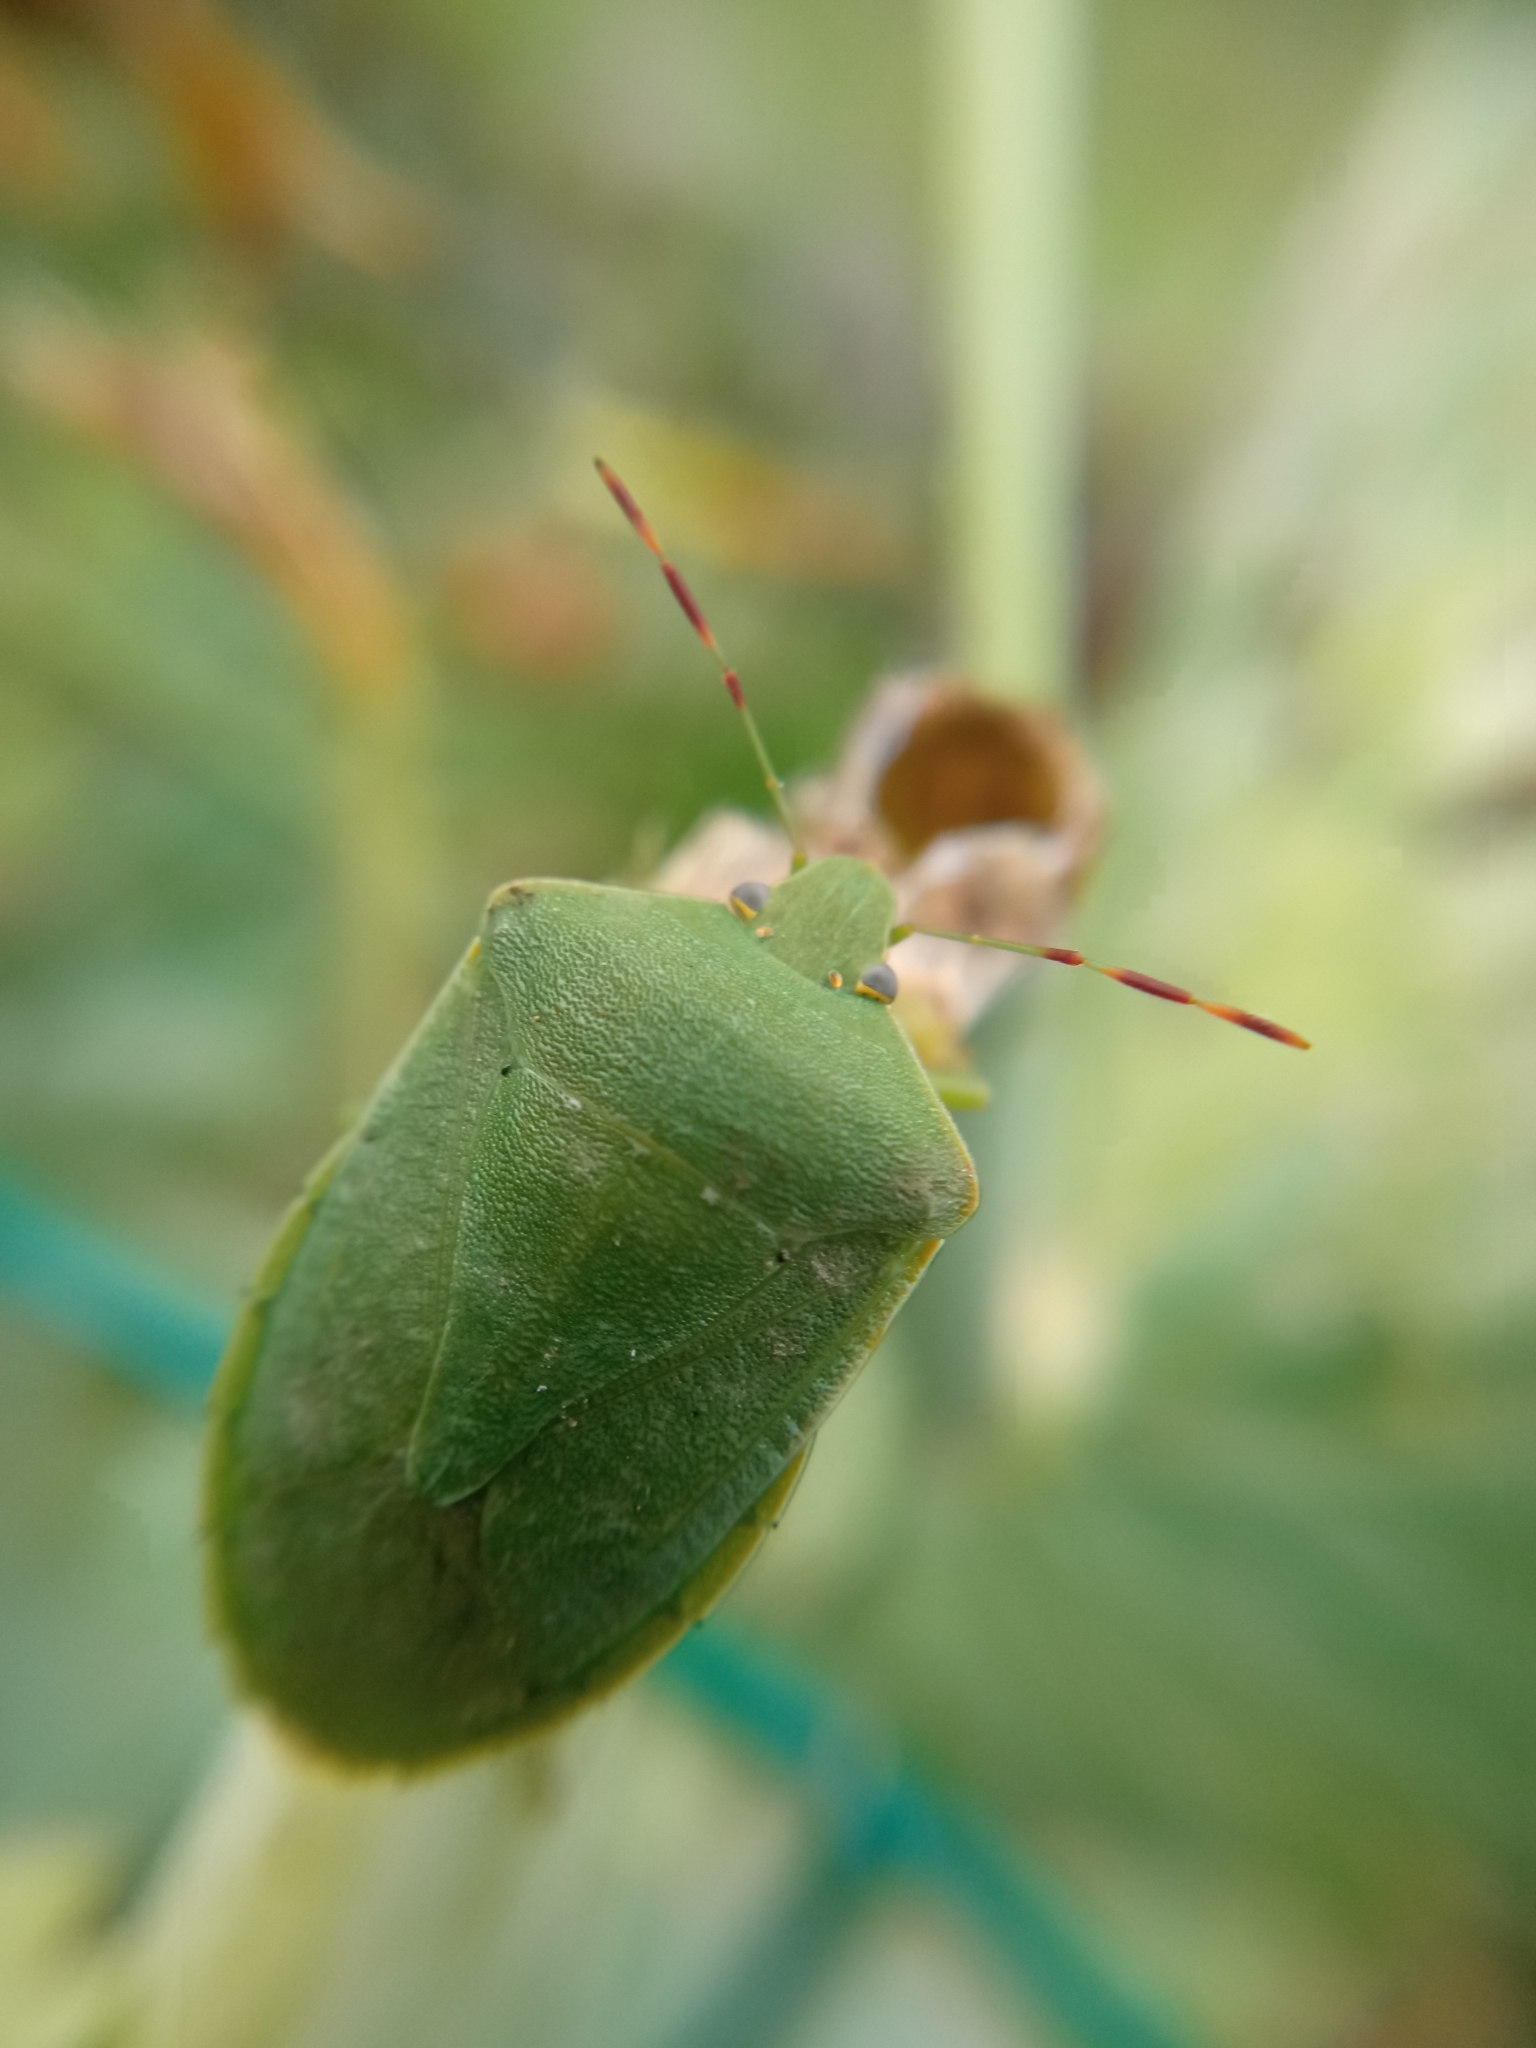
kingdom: Animalia
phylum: Arthropoda
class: Insecta
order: Hemiptera
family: Pentatomidae
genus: Nezara
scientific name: Nezara viridula
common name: Southern green stink bug
